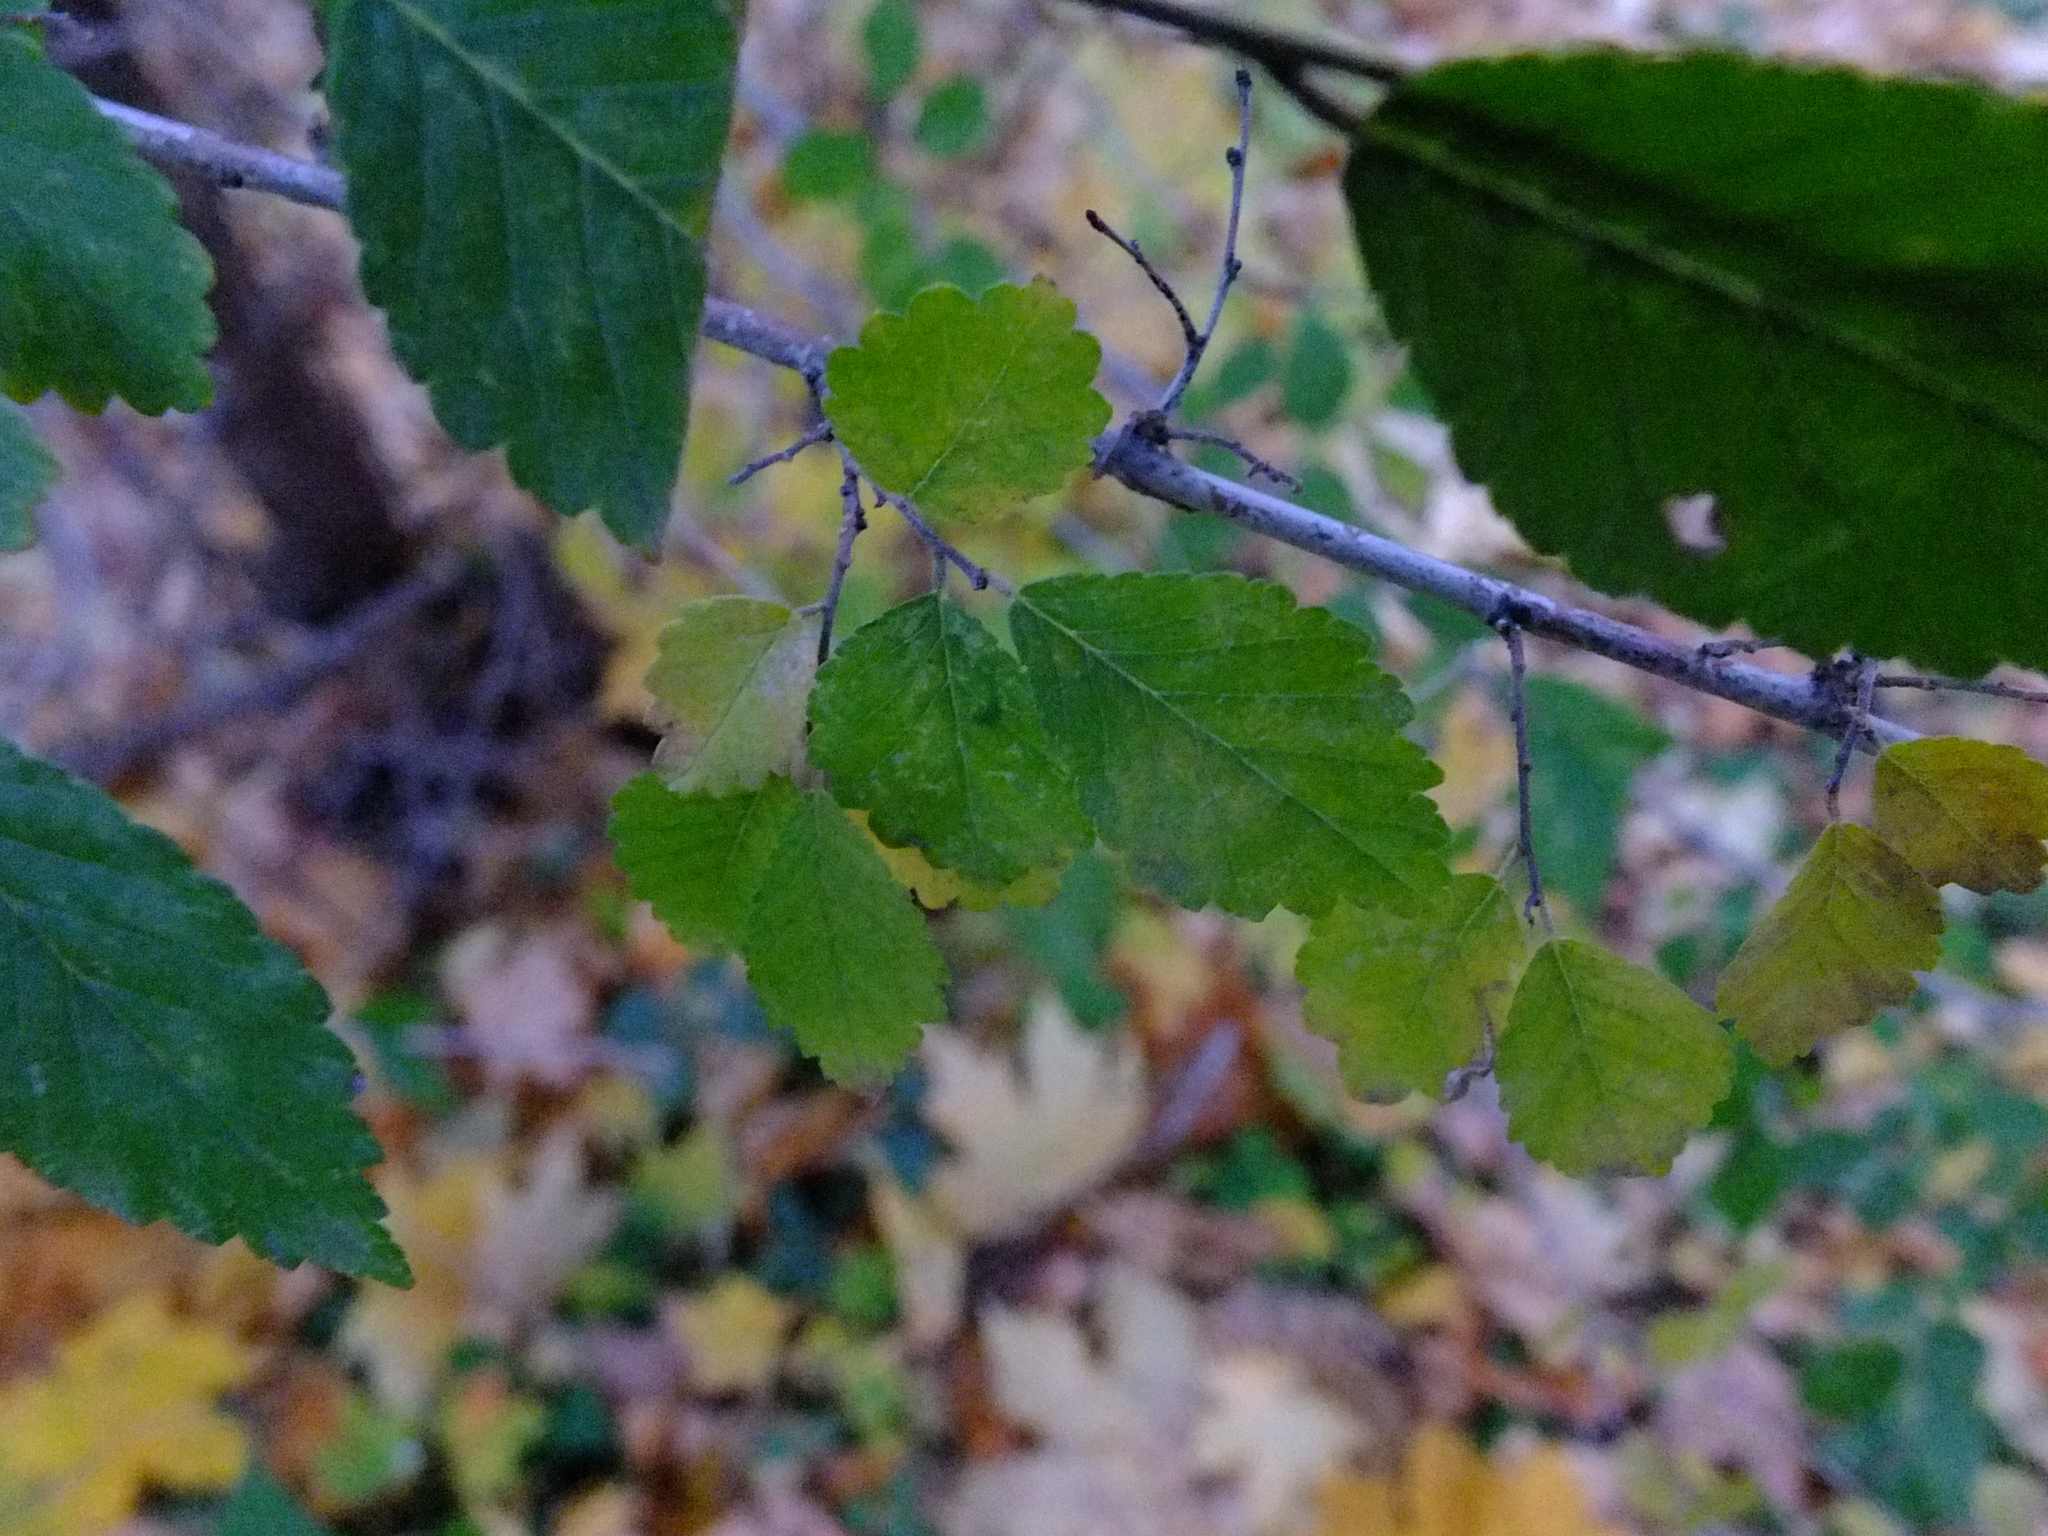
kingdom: Plantae
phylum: Tracheophyta
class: Magnoliopsida
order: Rosales
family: Ulmaceae
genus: Ulmus
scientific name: Ulmus pumila
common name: Siberian elm
